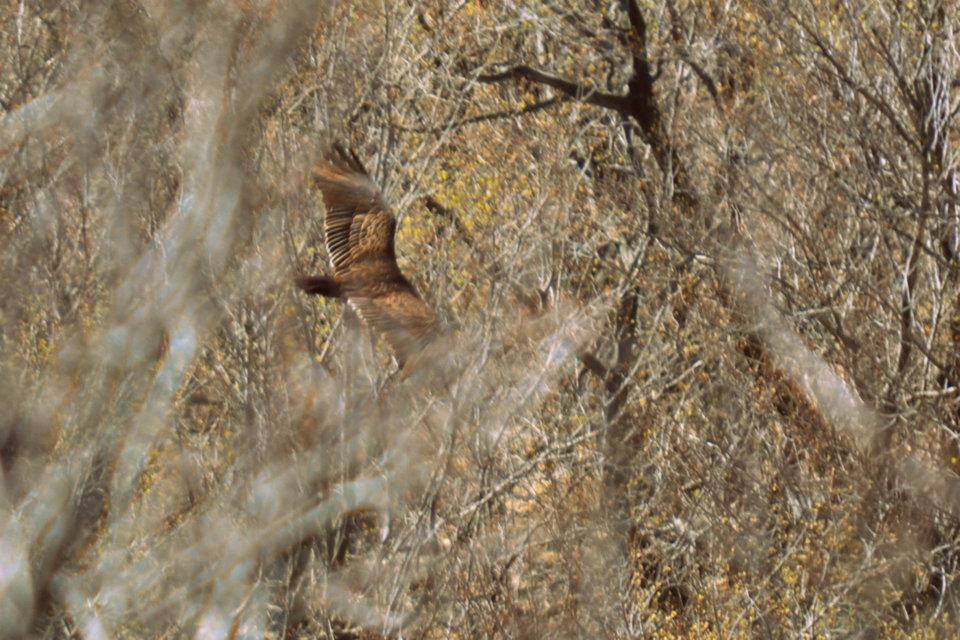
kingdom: Animalia
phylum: Chordata
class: Aves
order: Accipitriformes
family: Cathartidae
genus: Cathartes
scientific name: Cathartes aura
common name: Turkey vulture
